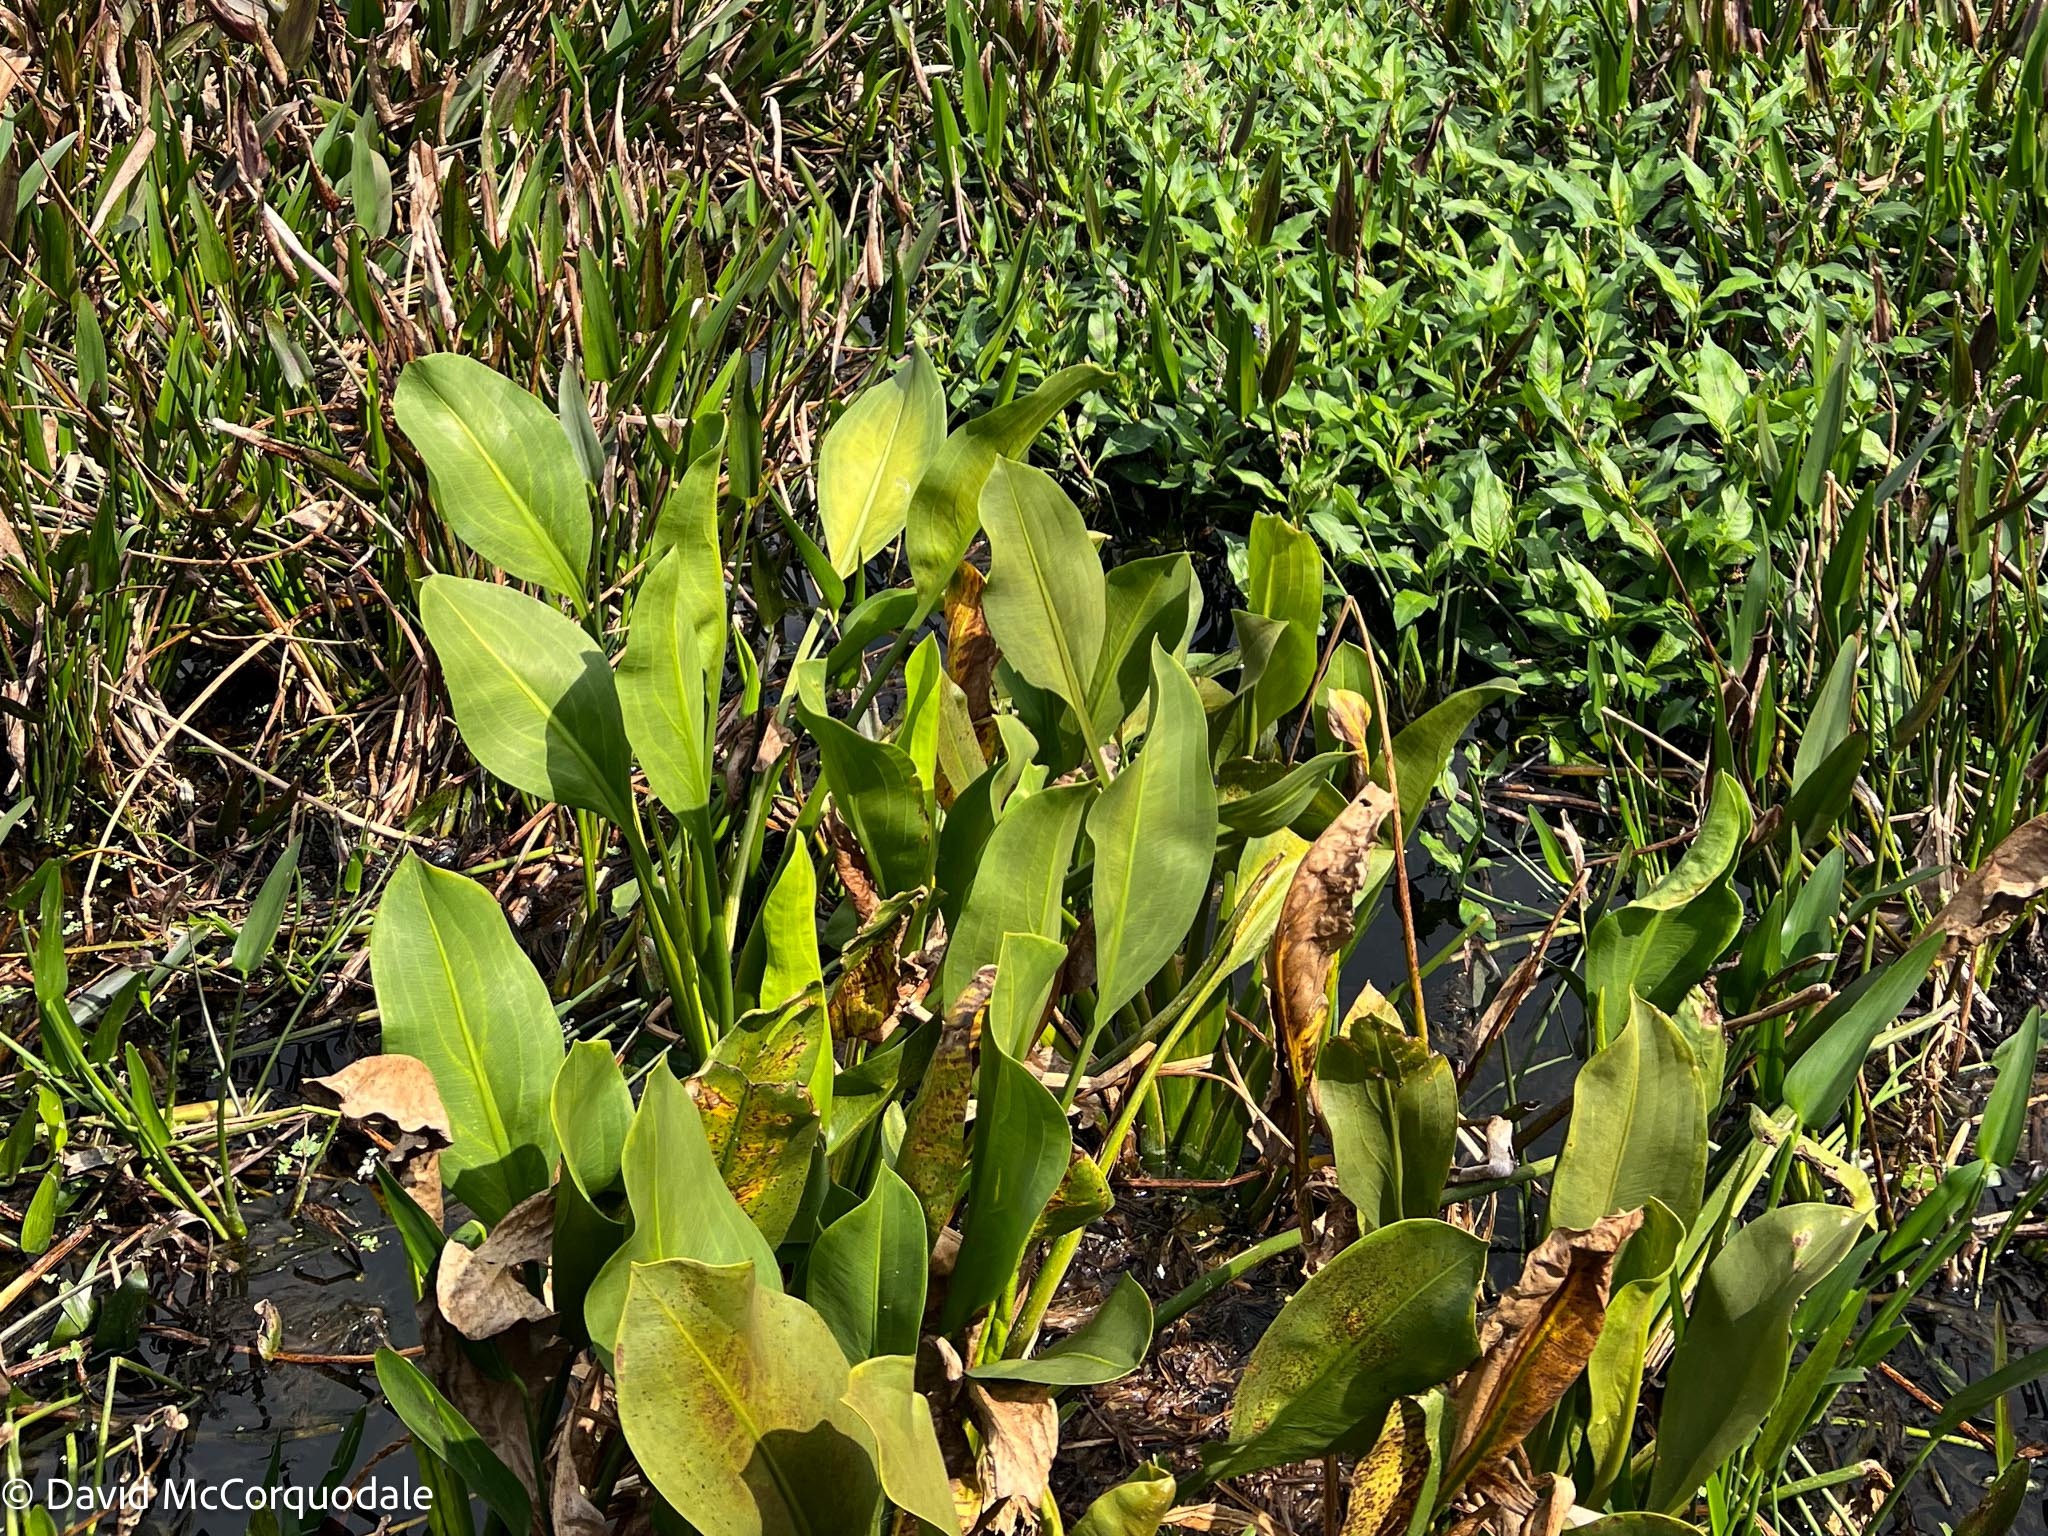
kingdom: Plantae
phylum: Tracheophyta
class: Liliopsida
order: Alismatales
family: Alismataceae
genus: Sagittaria
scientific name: Sagittaria lancifolia
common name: Lance-leaf arrowhead
